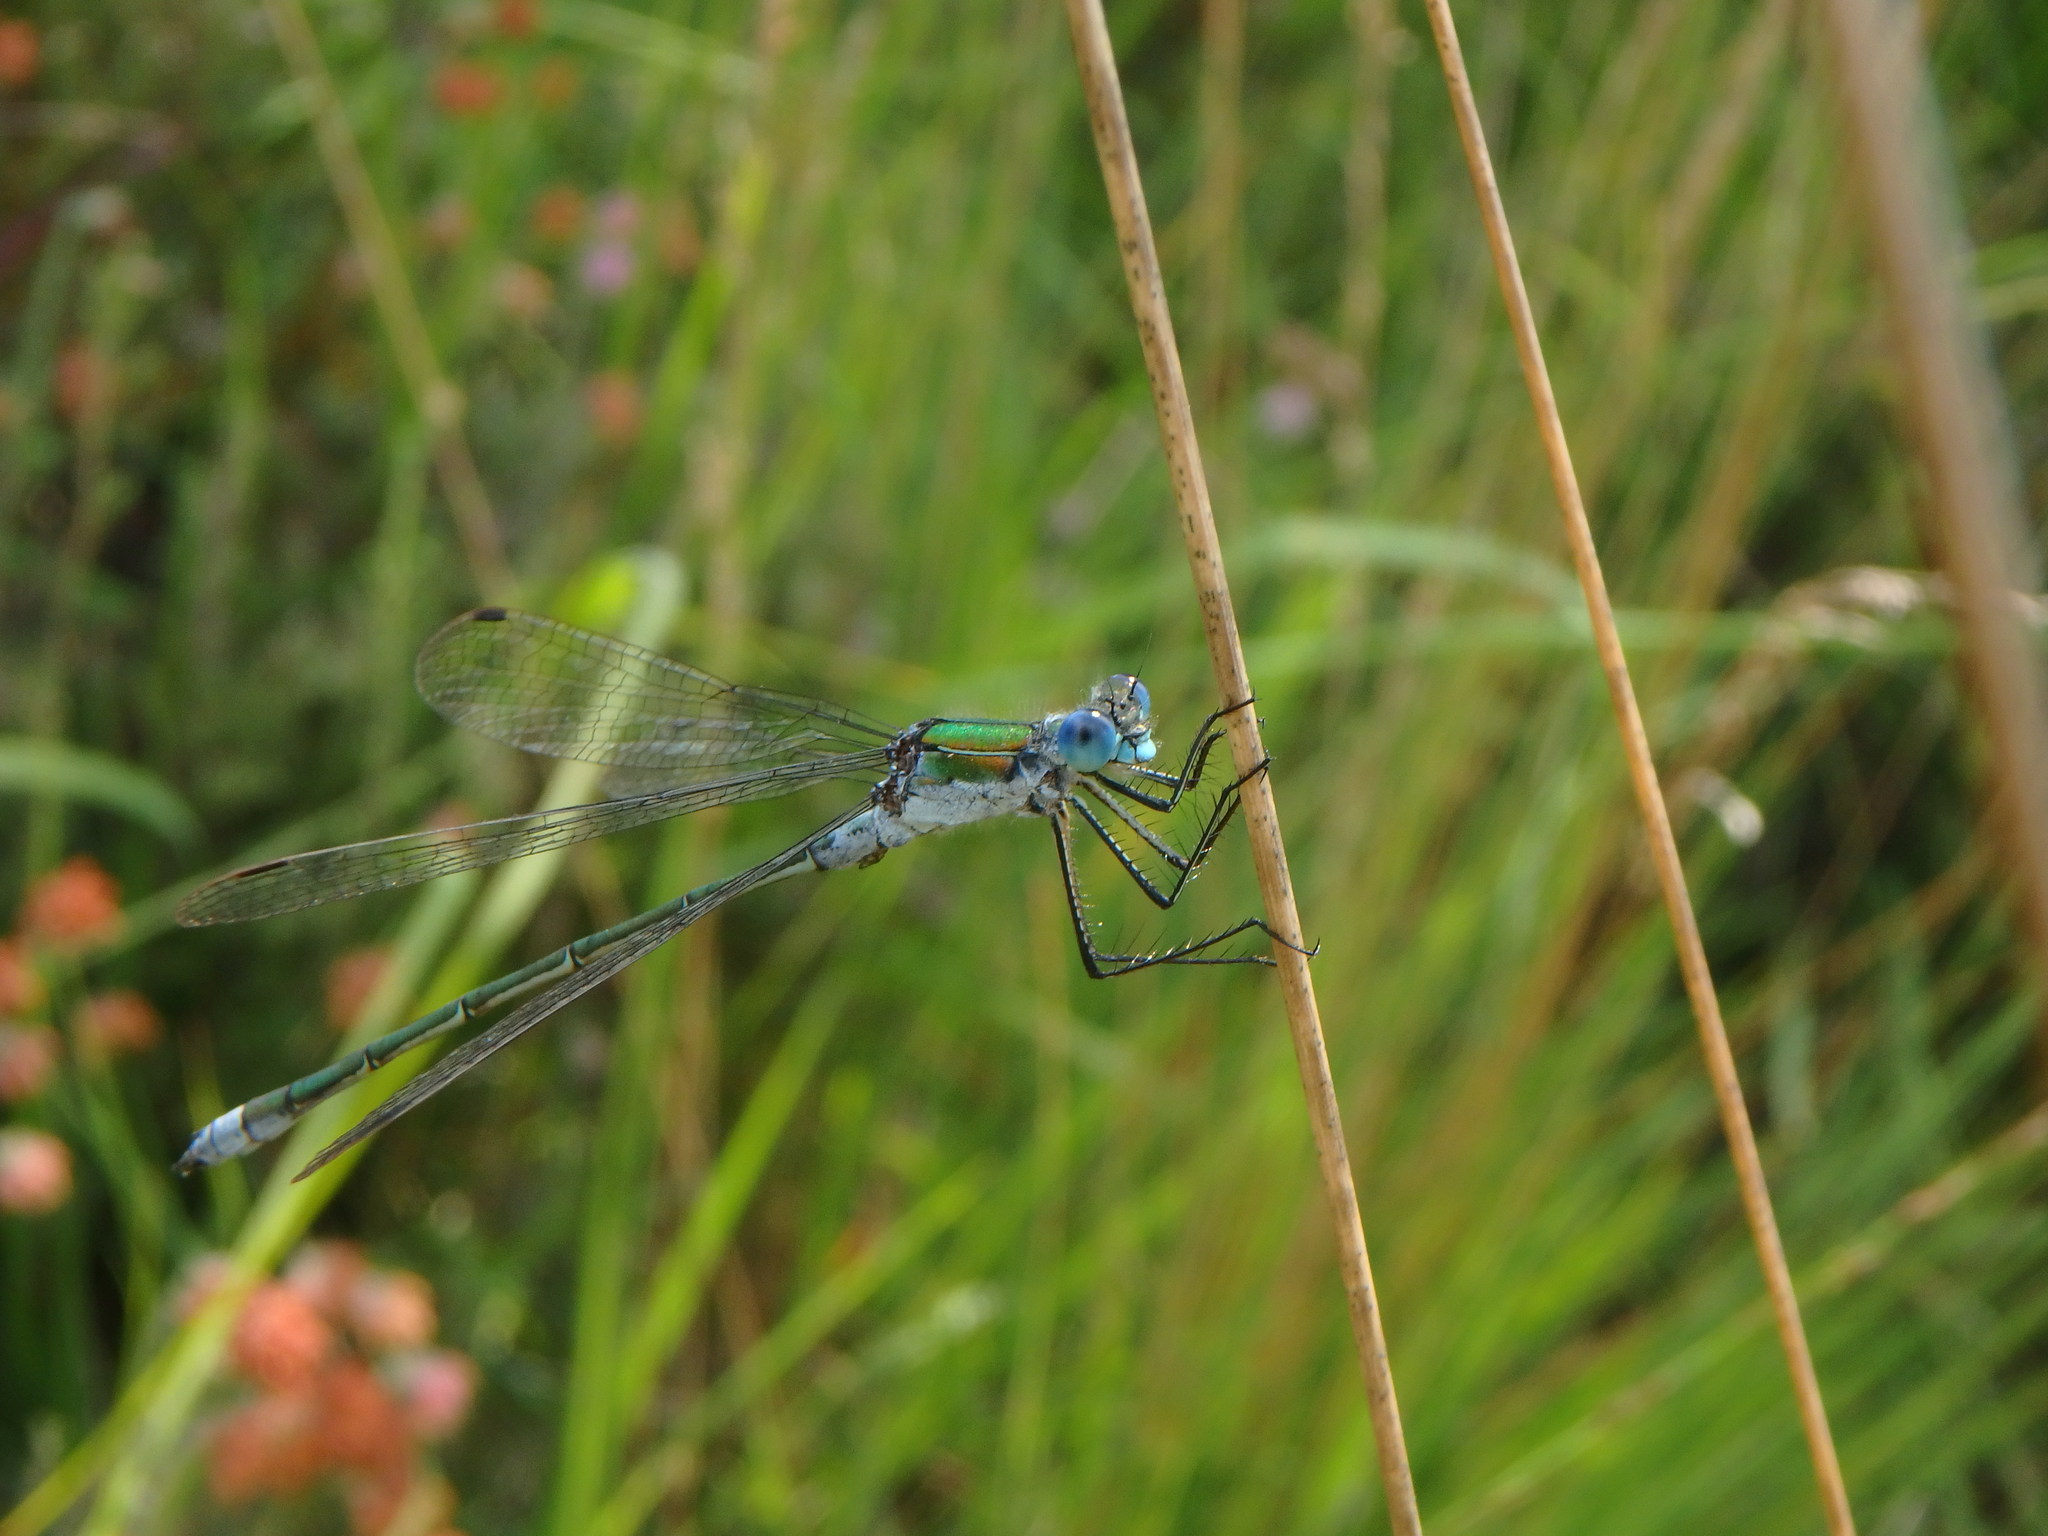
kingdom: Animalia
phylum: Arthropoda
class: Insecta
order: Odonata
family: Lestidae
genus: Lestes
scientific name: Lestes sponsa
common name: Common spreadwing
